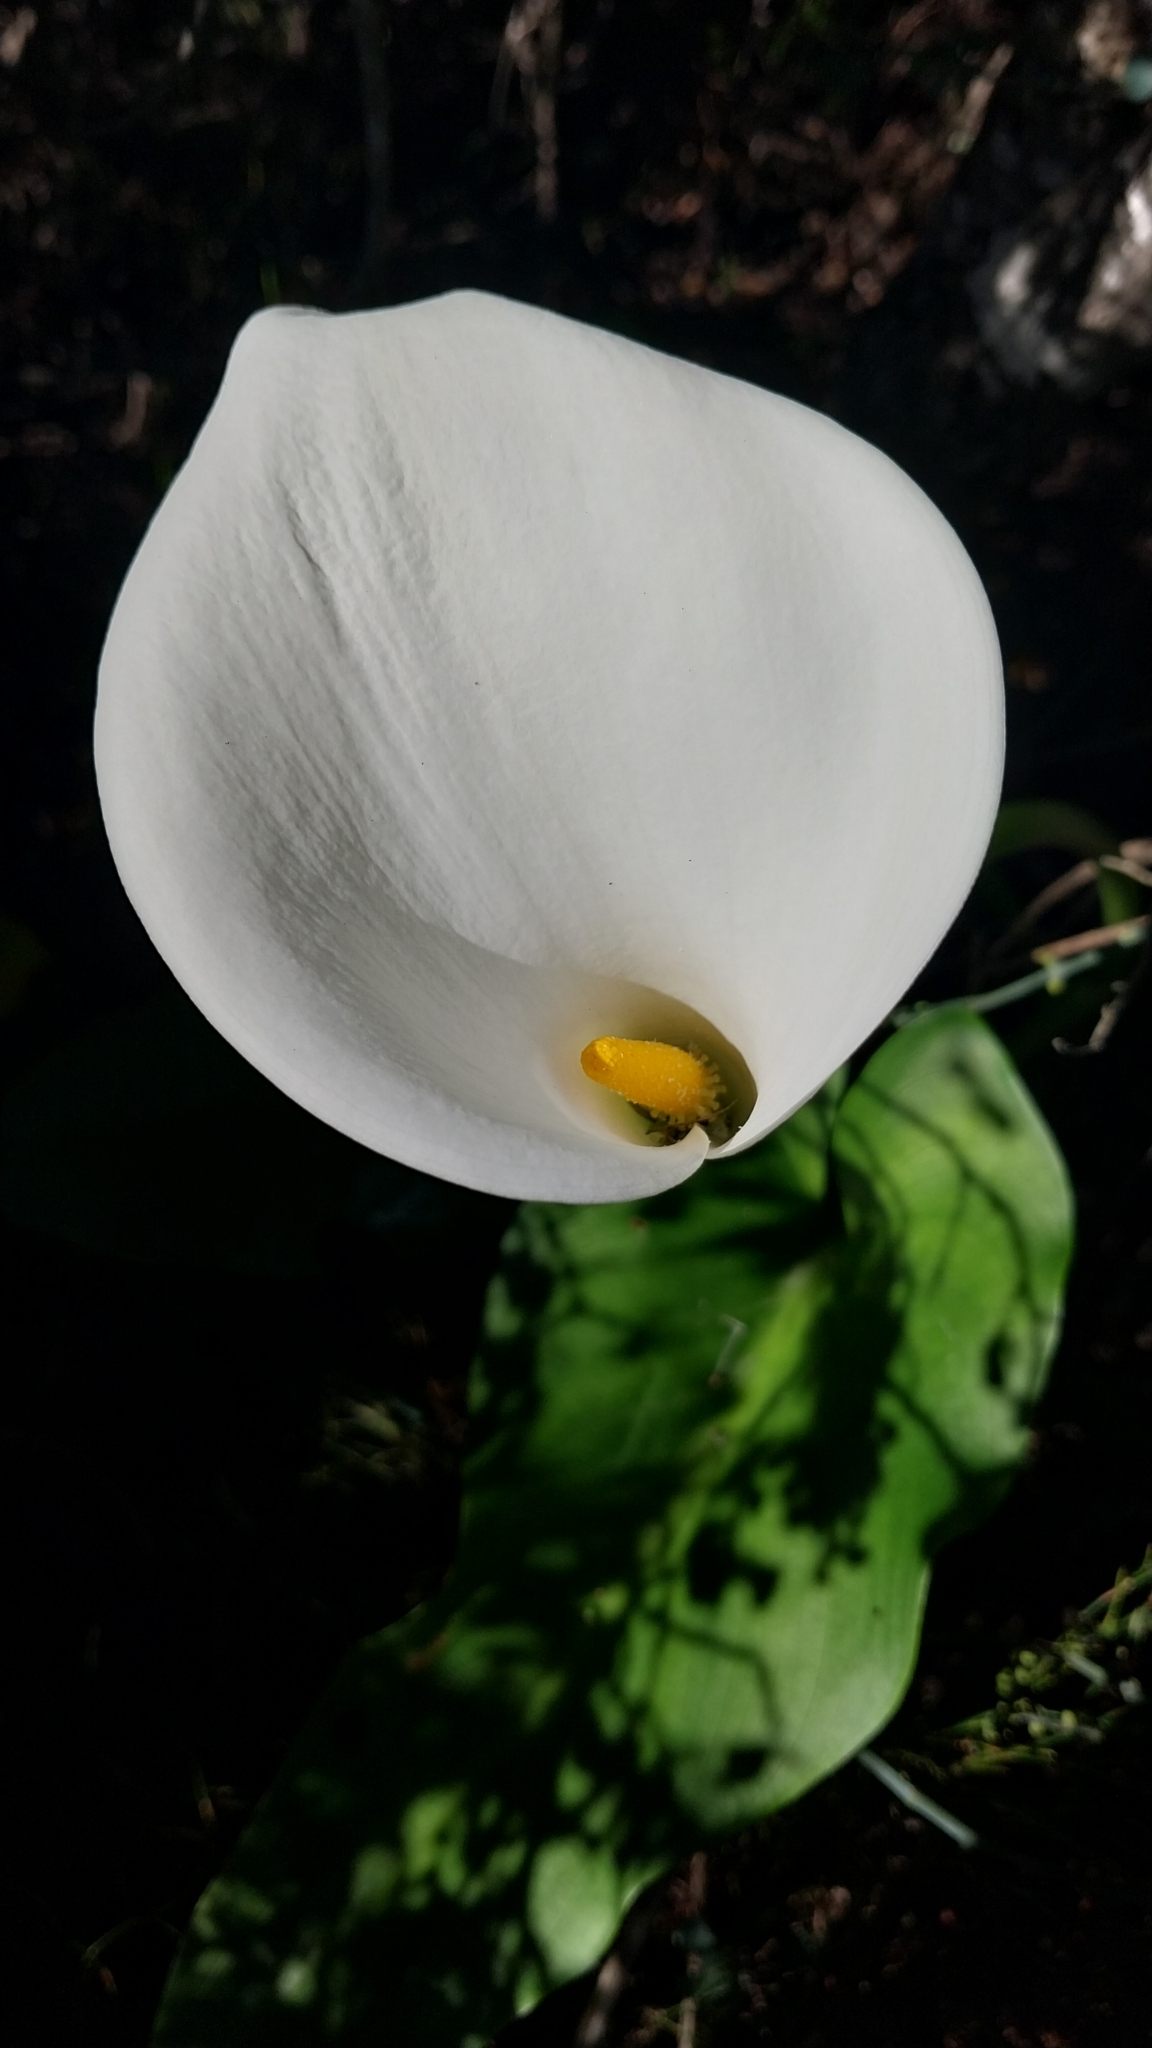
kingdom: Plantae
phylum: Tracheophyta
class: Liliopsida
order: Alismatales
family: Araceae
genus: Zantedeschia
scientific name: Zantedeschia aethiopica
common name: Altar-lily
